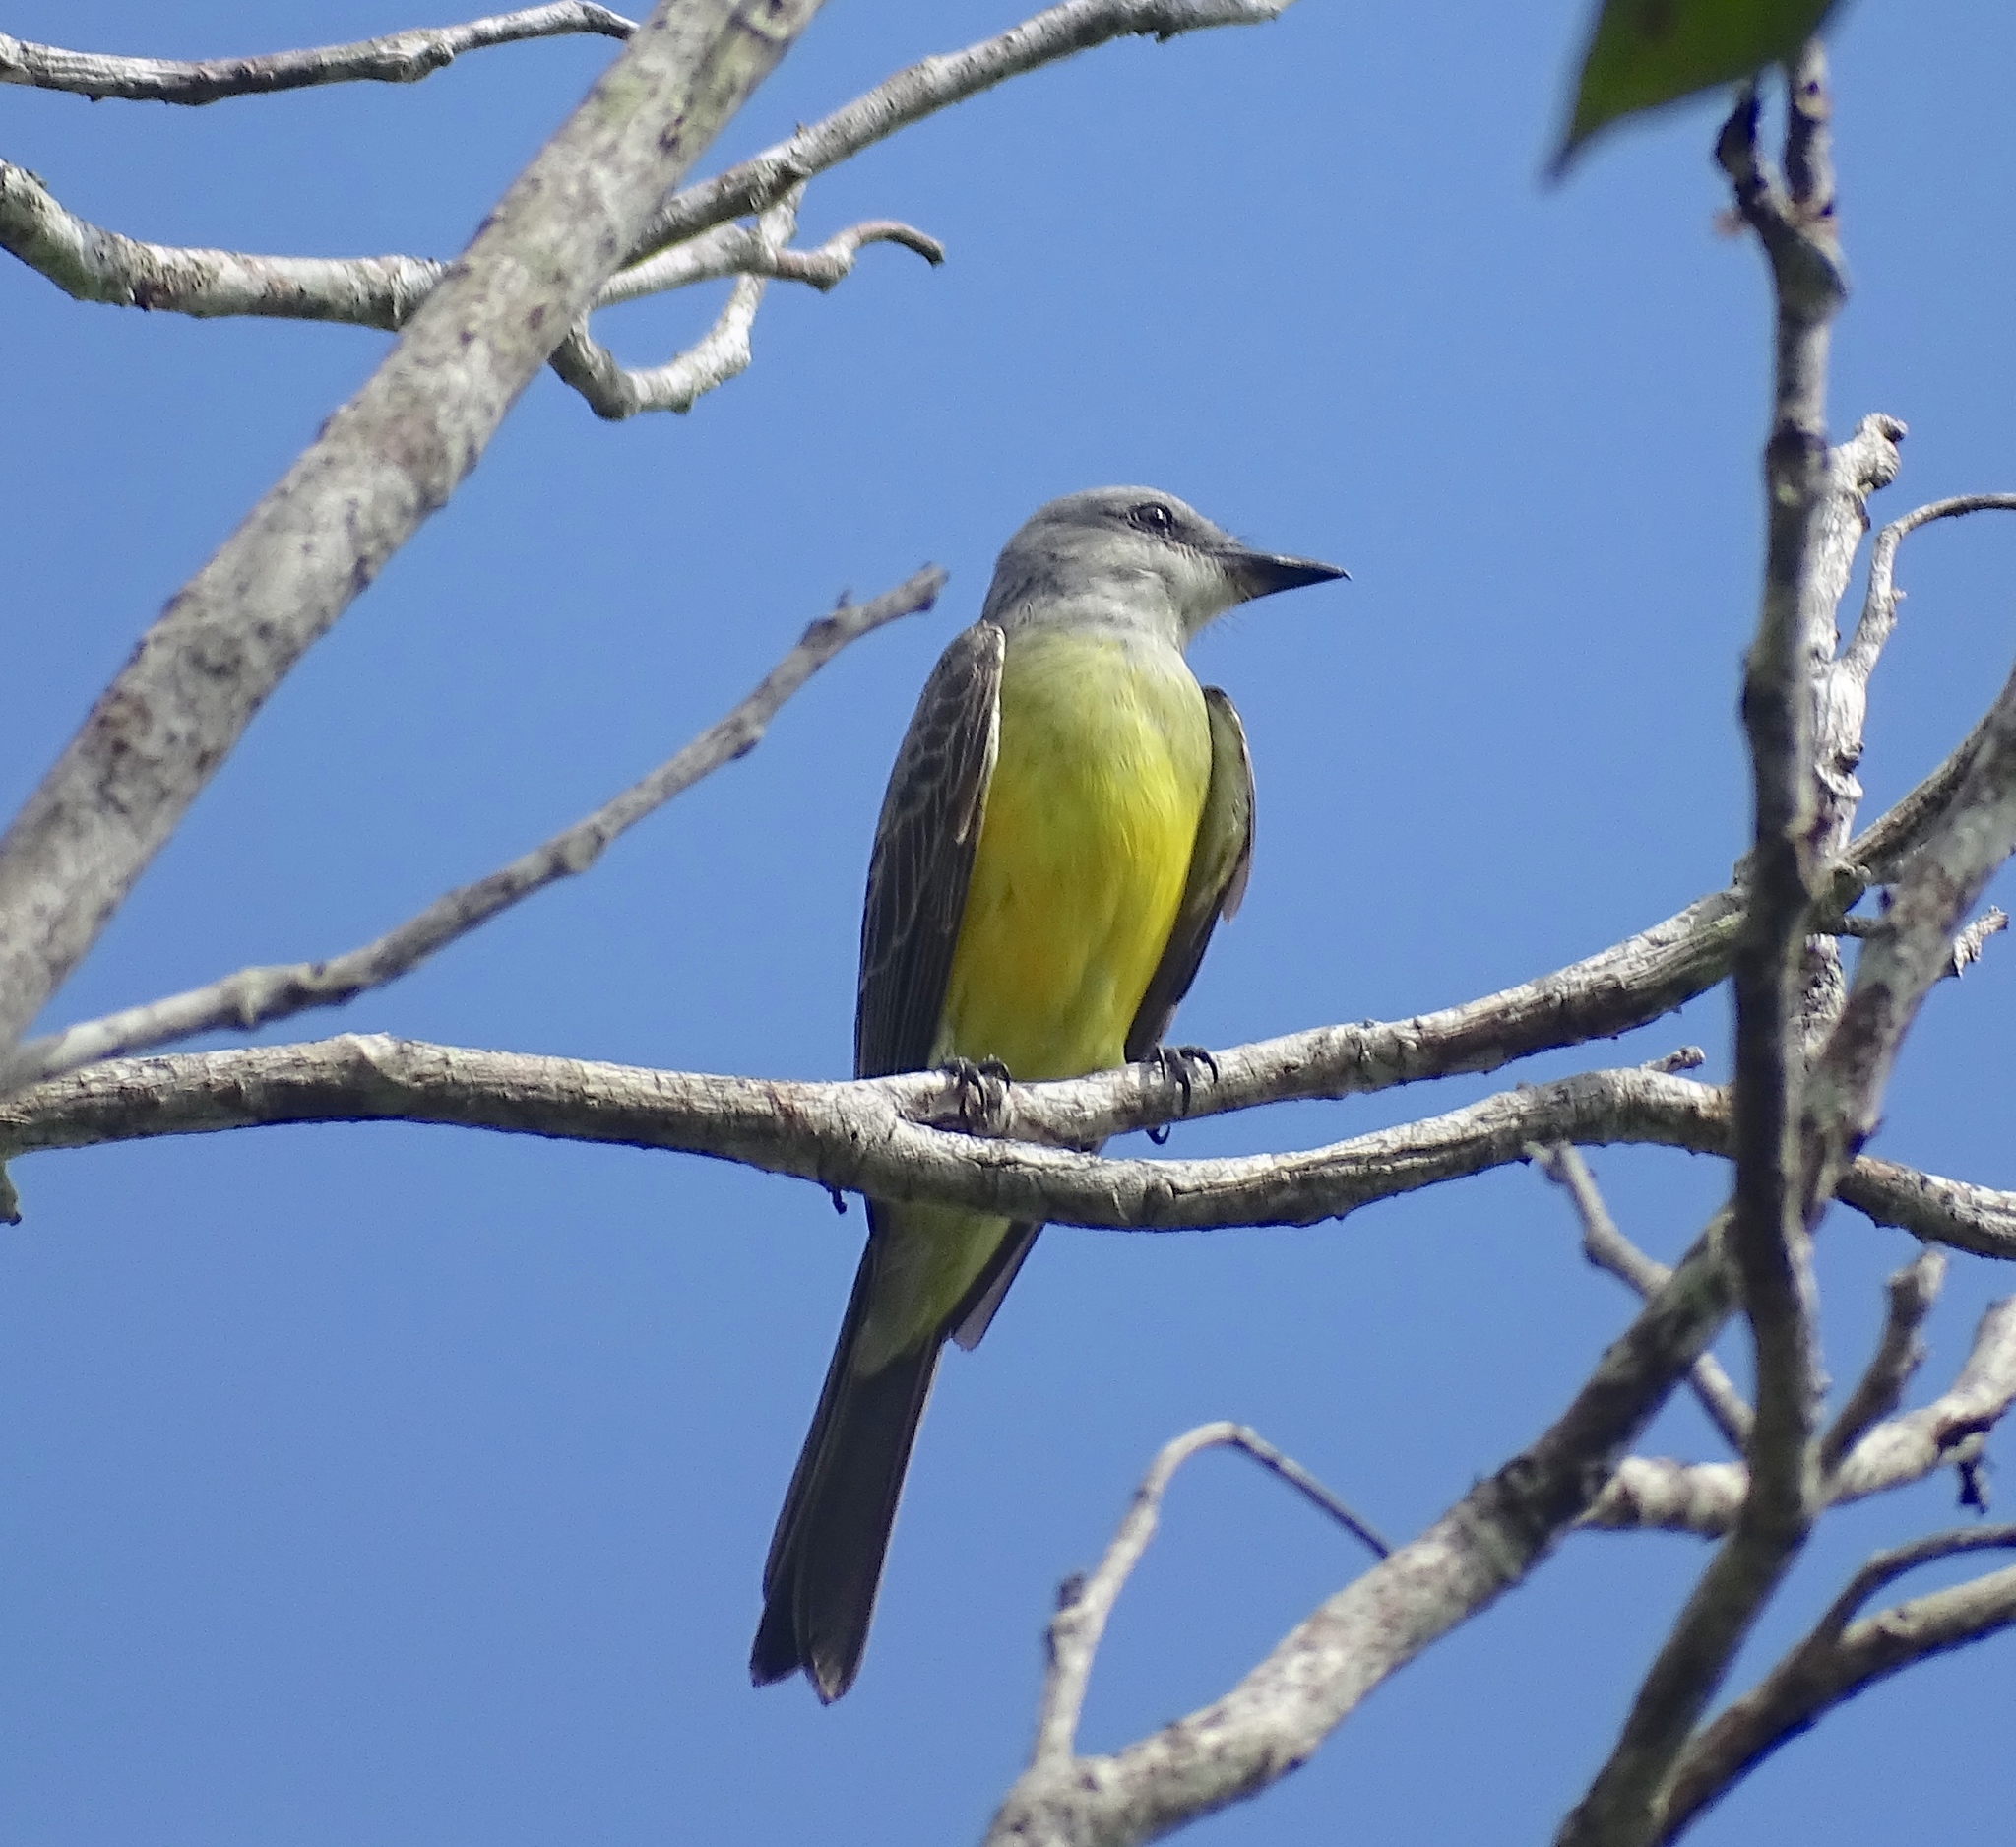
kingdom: Animalia
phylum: Chordata
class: Aves
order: Passeriformes
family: Tyrannidae
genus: Tyrannus
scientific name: Tyrannus melancholicus
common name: Tropical kingbird
